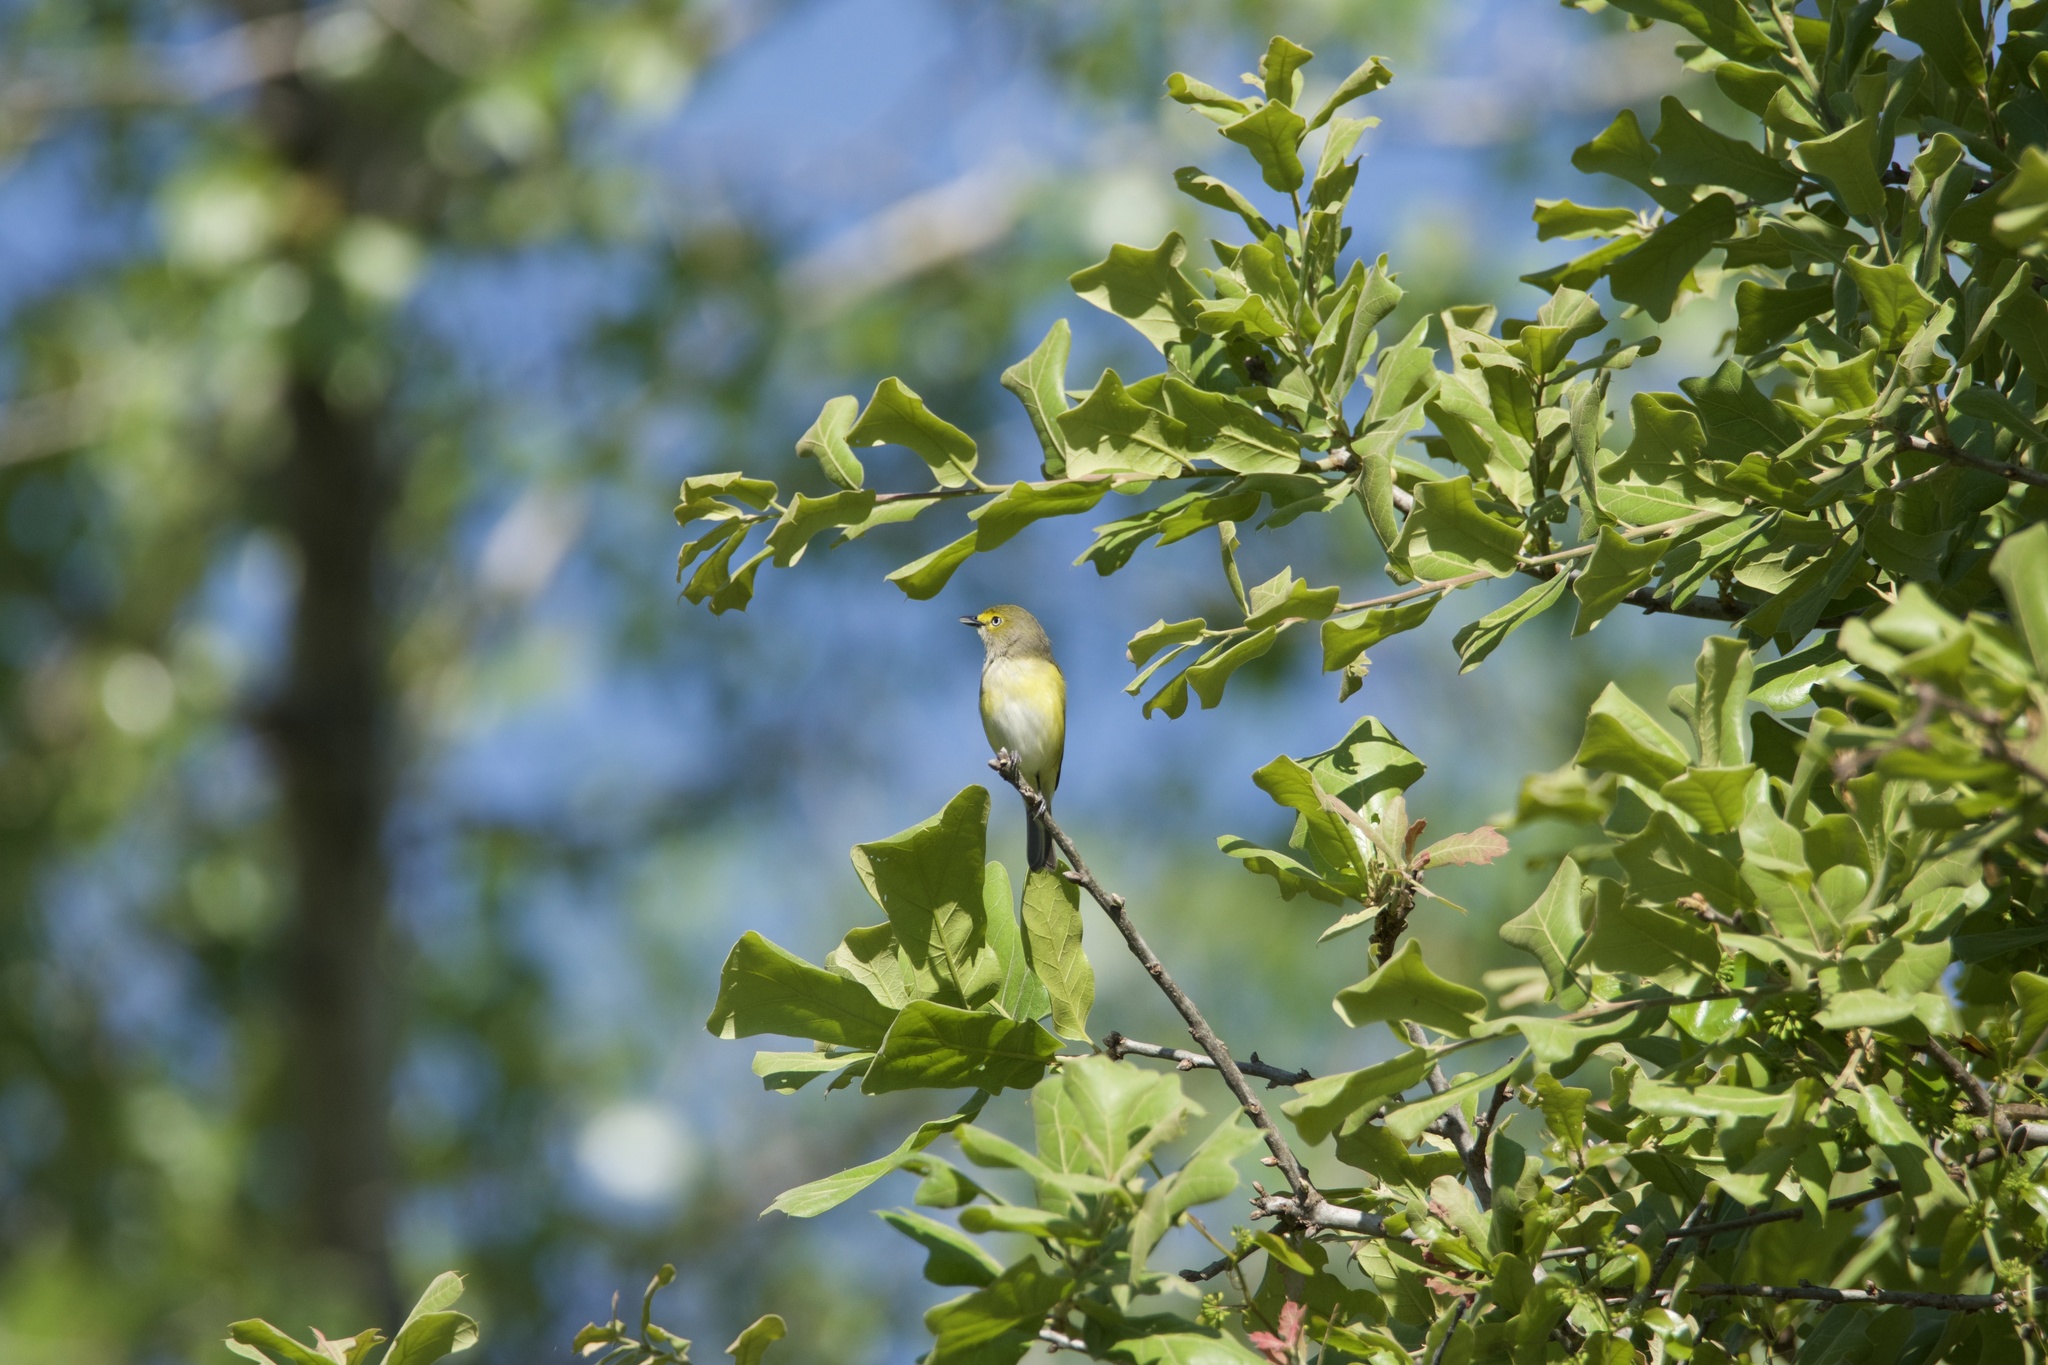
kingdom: Animalia
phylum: Chordata
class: Aves
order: Passeriformes
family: Vireonidae
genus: Vireo
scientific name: Vireo griseus
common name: White-eyed vireo
